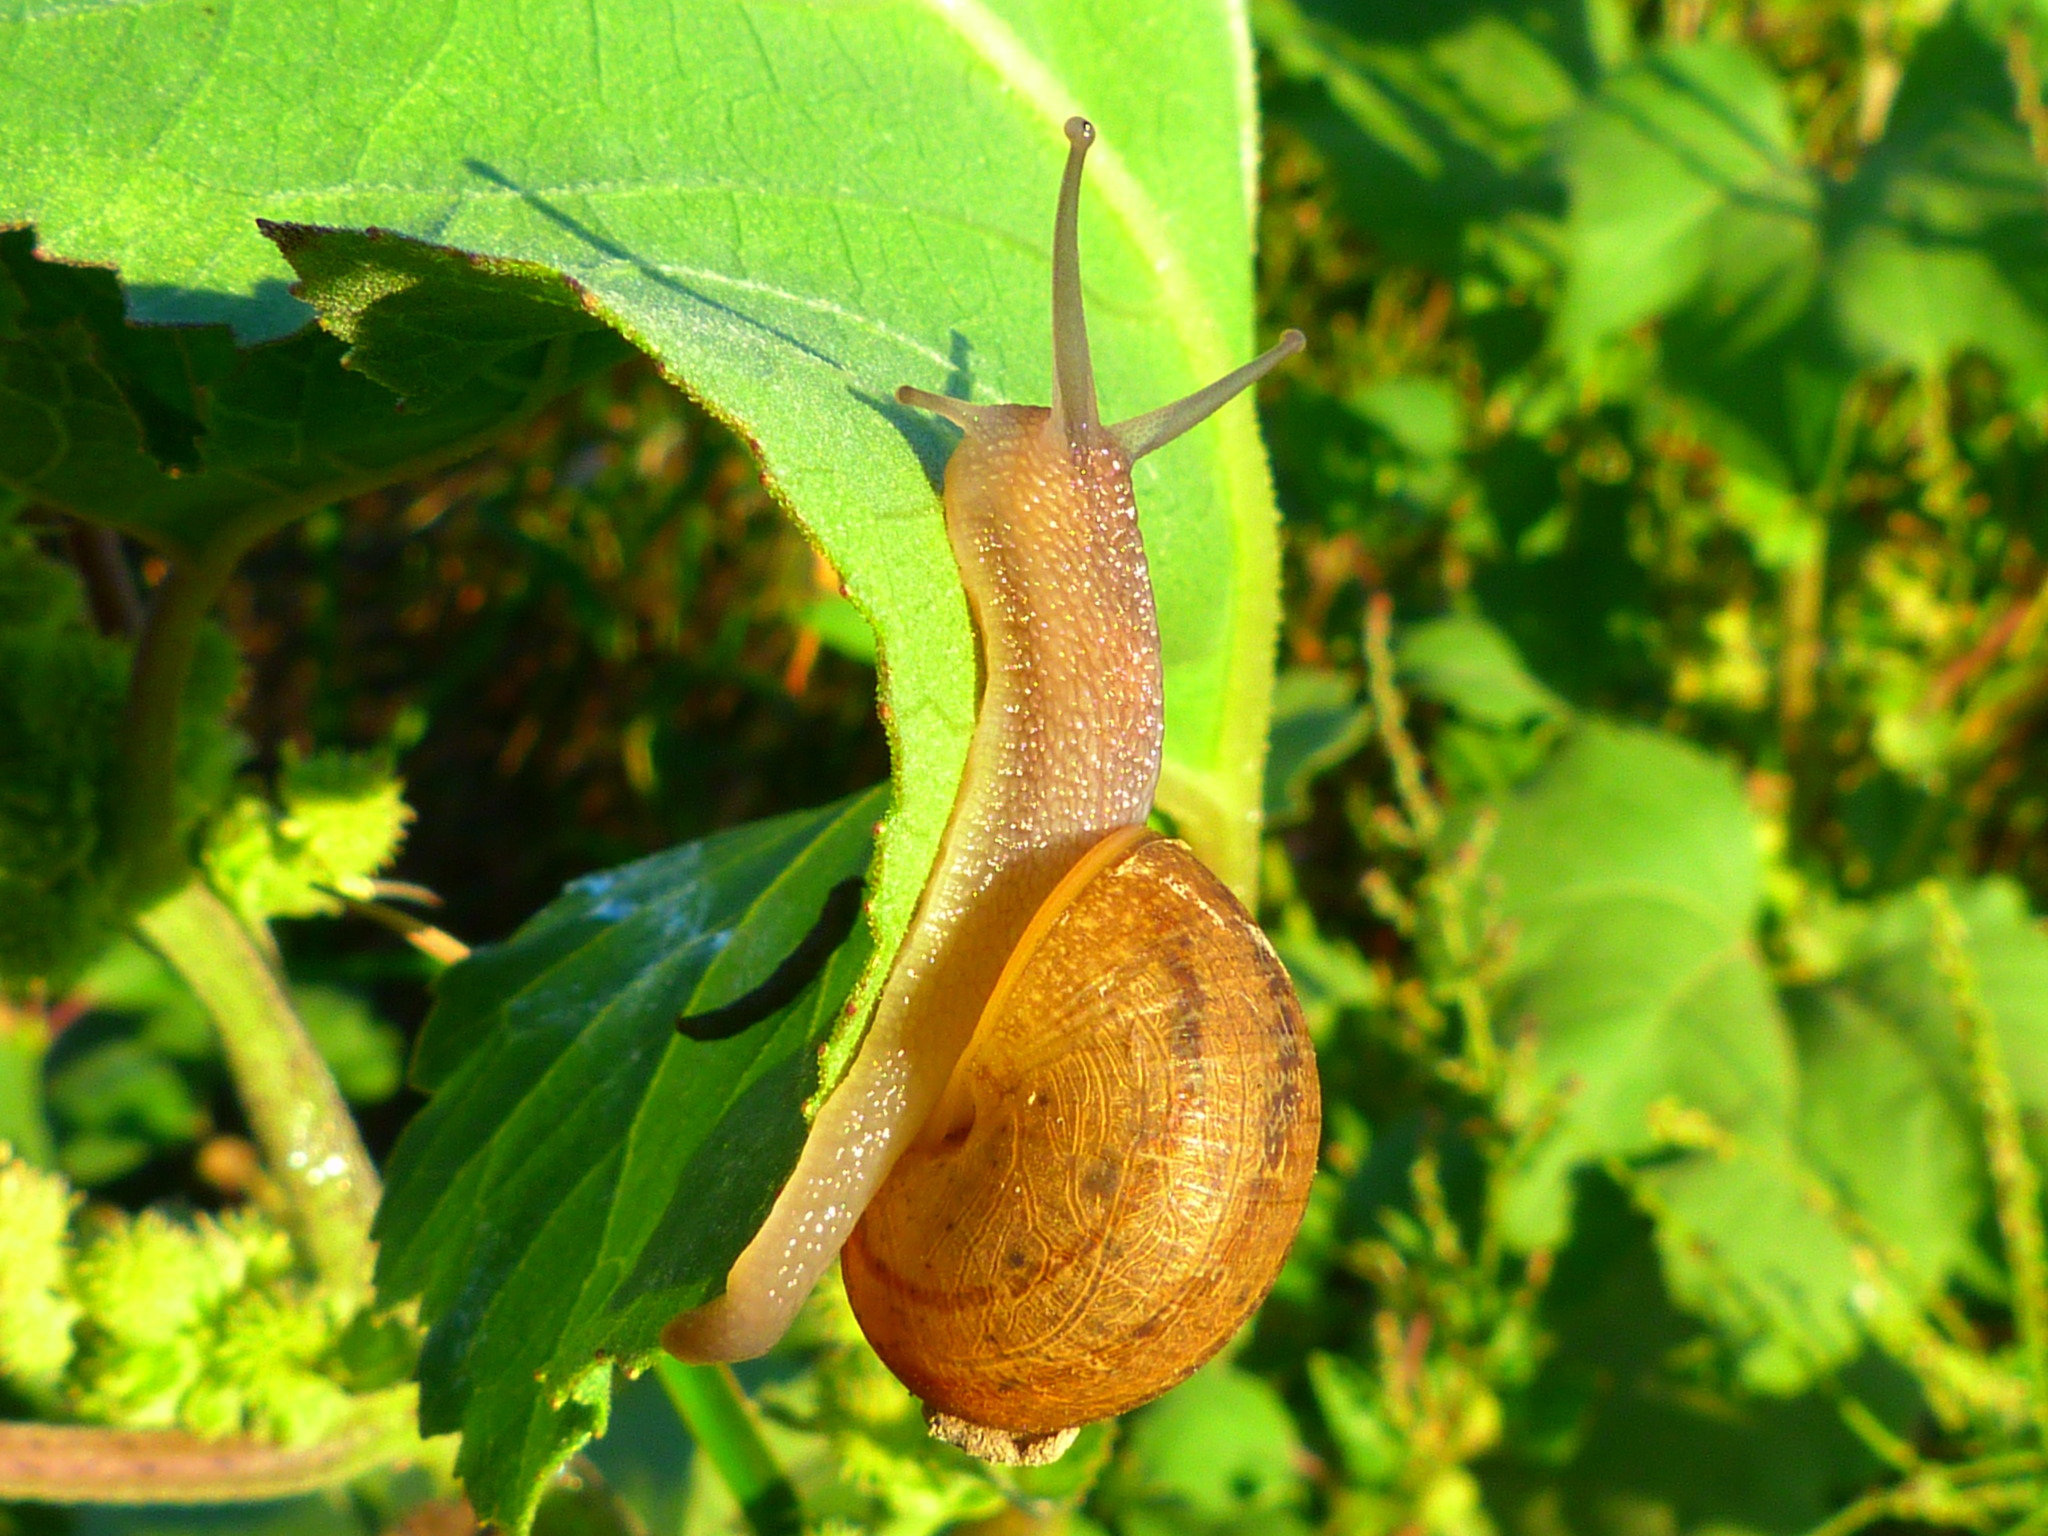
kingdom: Animalia
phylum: Mollusca
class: Gastropoda
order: Stylommatophora
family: Helicidae
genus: Cornu
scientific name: Cornu aspersum
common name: Brown garden snail
